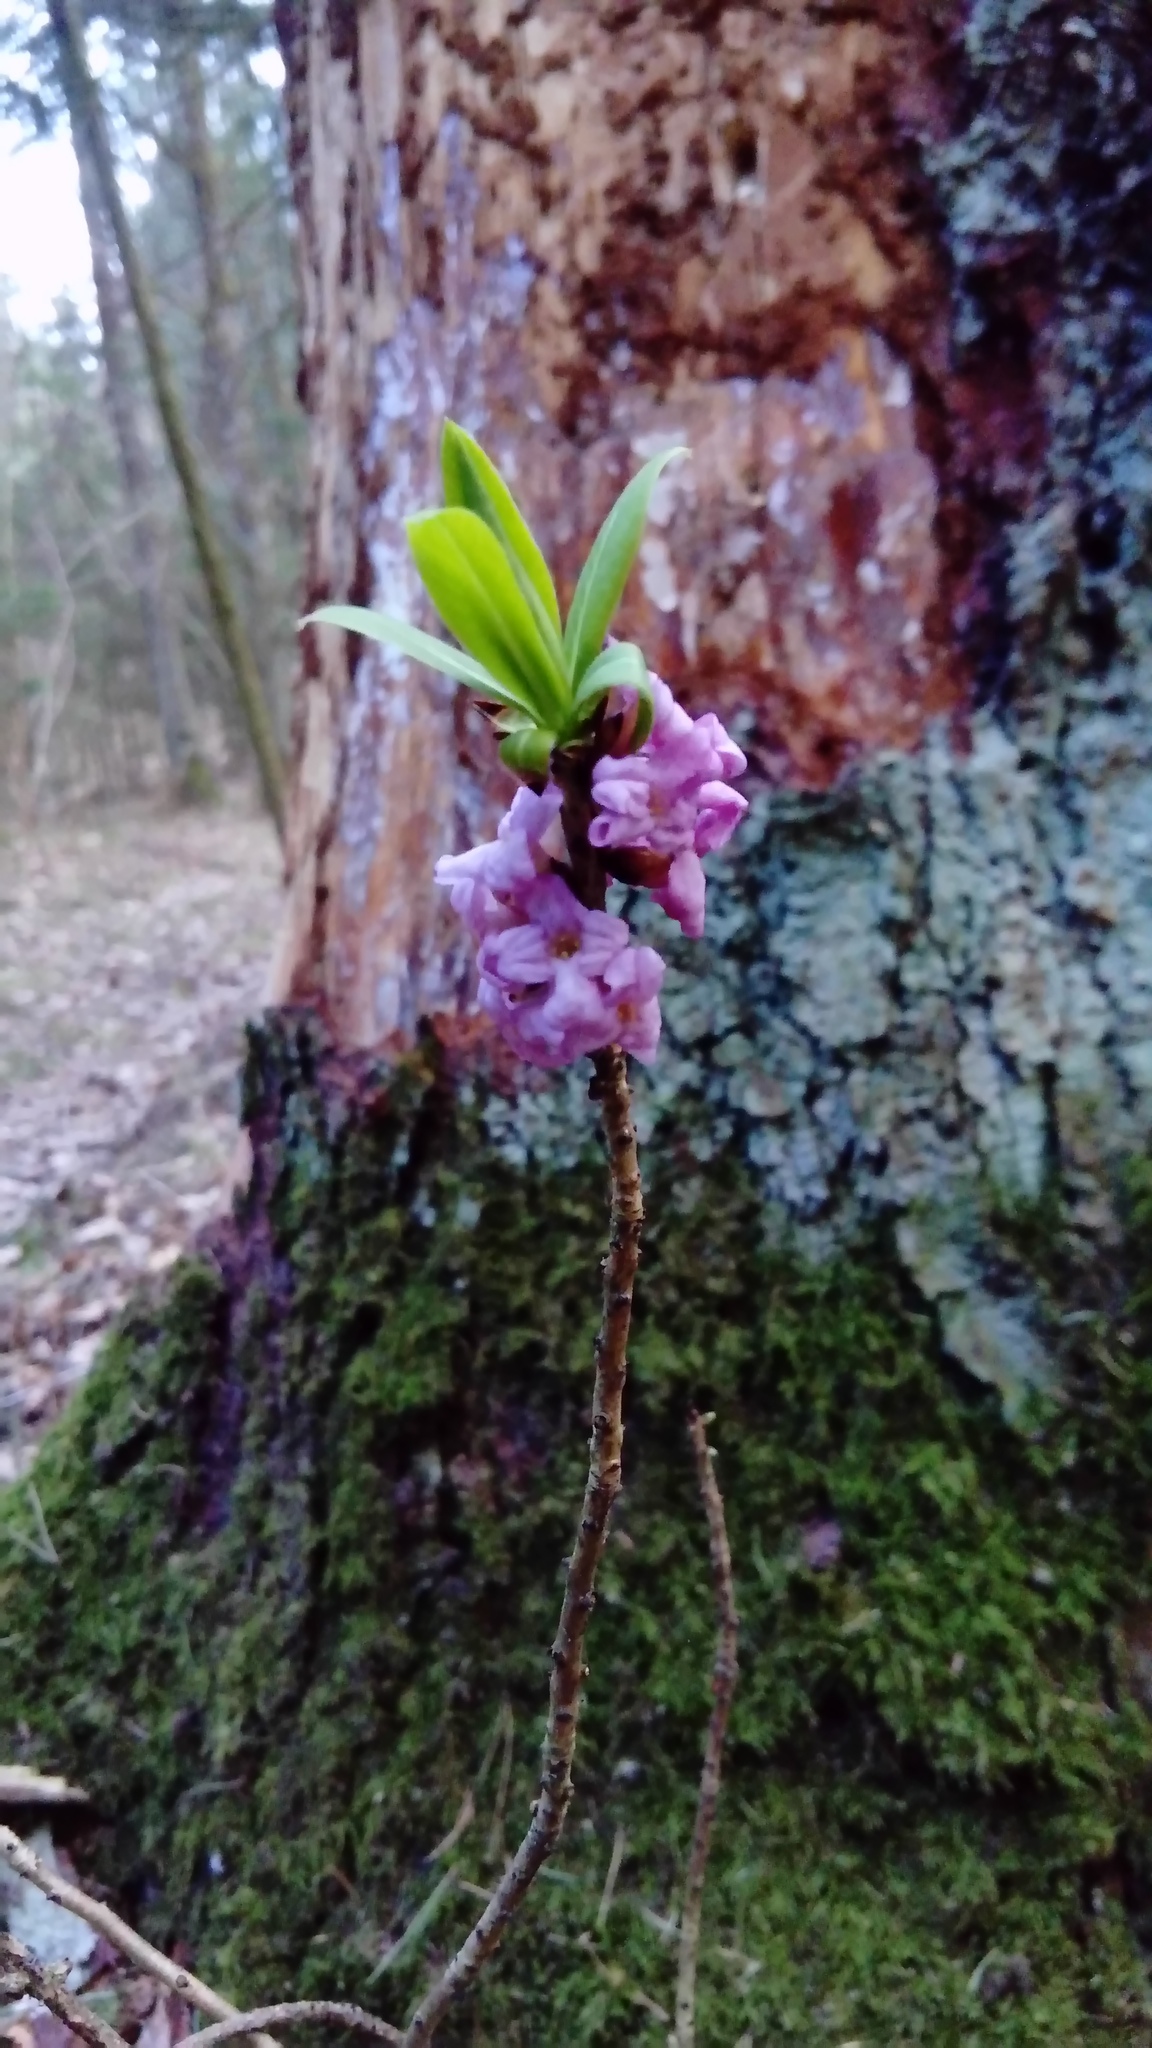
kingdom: Plantae
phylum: Tracheophyta
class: Magnoliopsida
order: Malvales
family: Thymelaeaceae
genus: Daphne
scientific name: Daphne mezereum
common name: Mezereon
